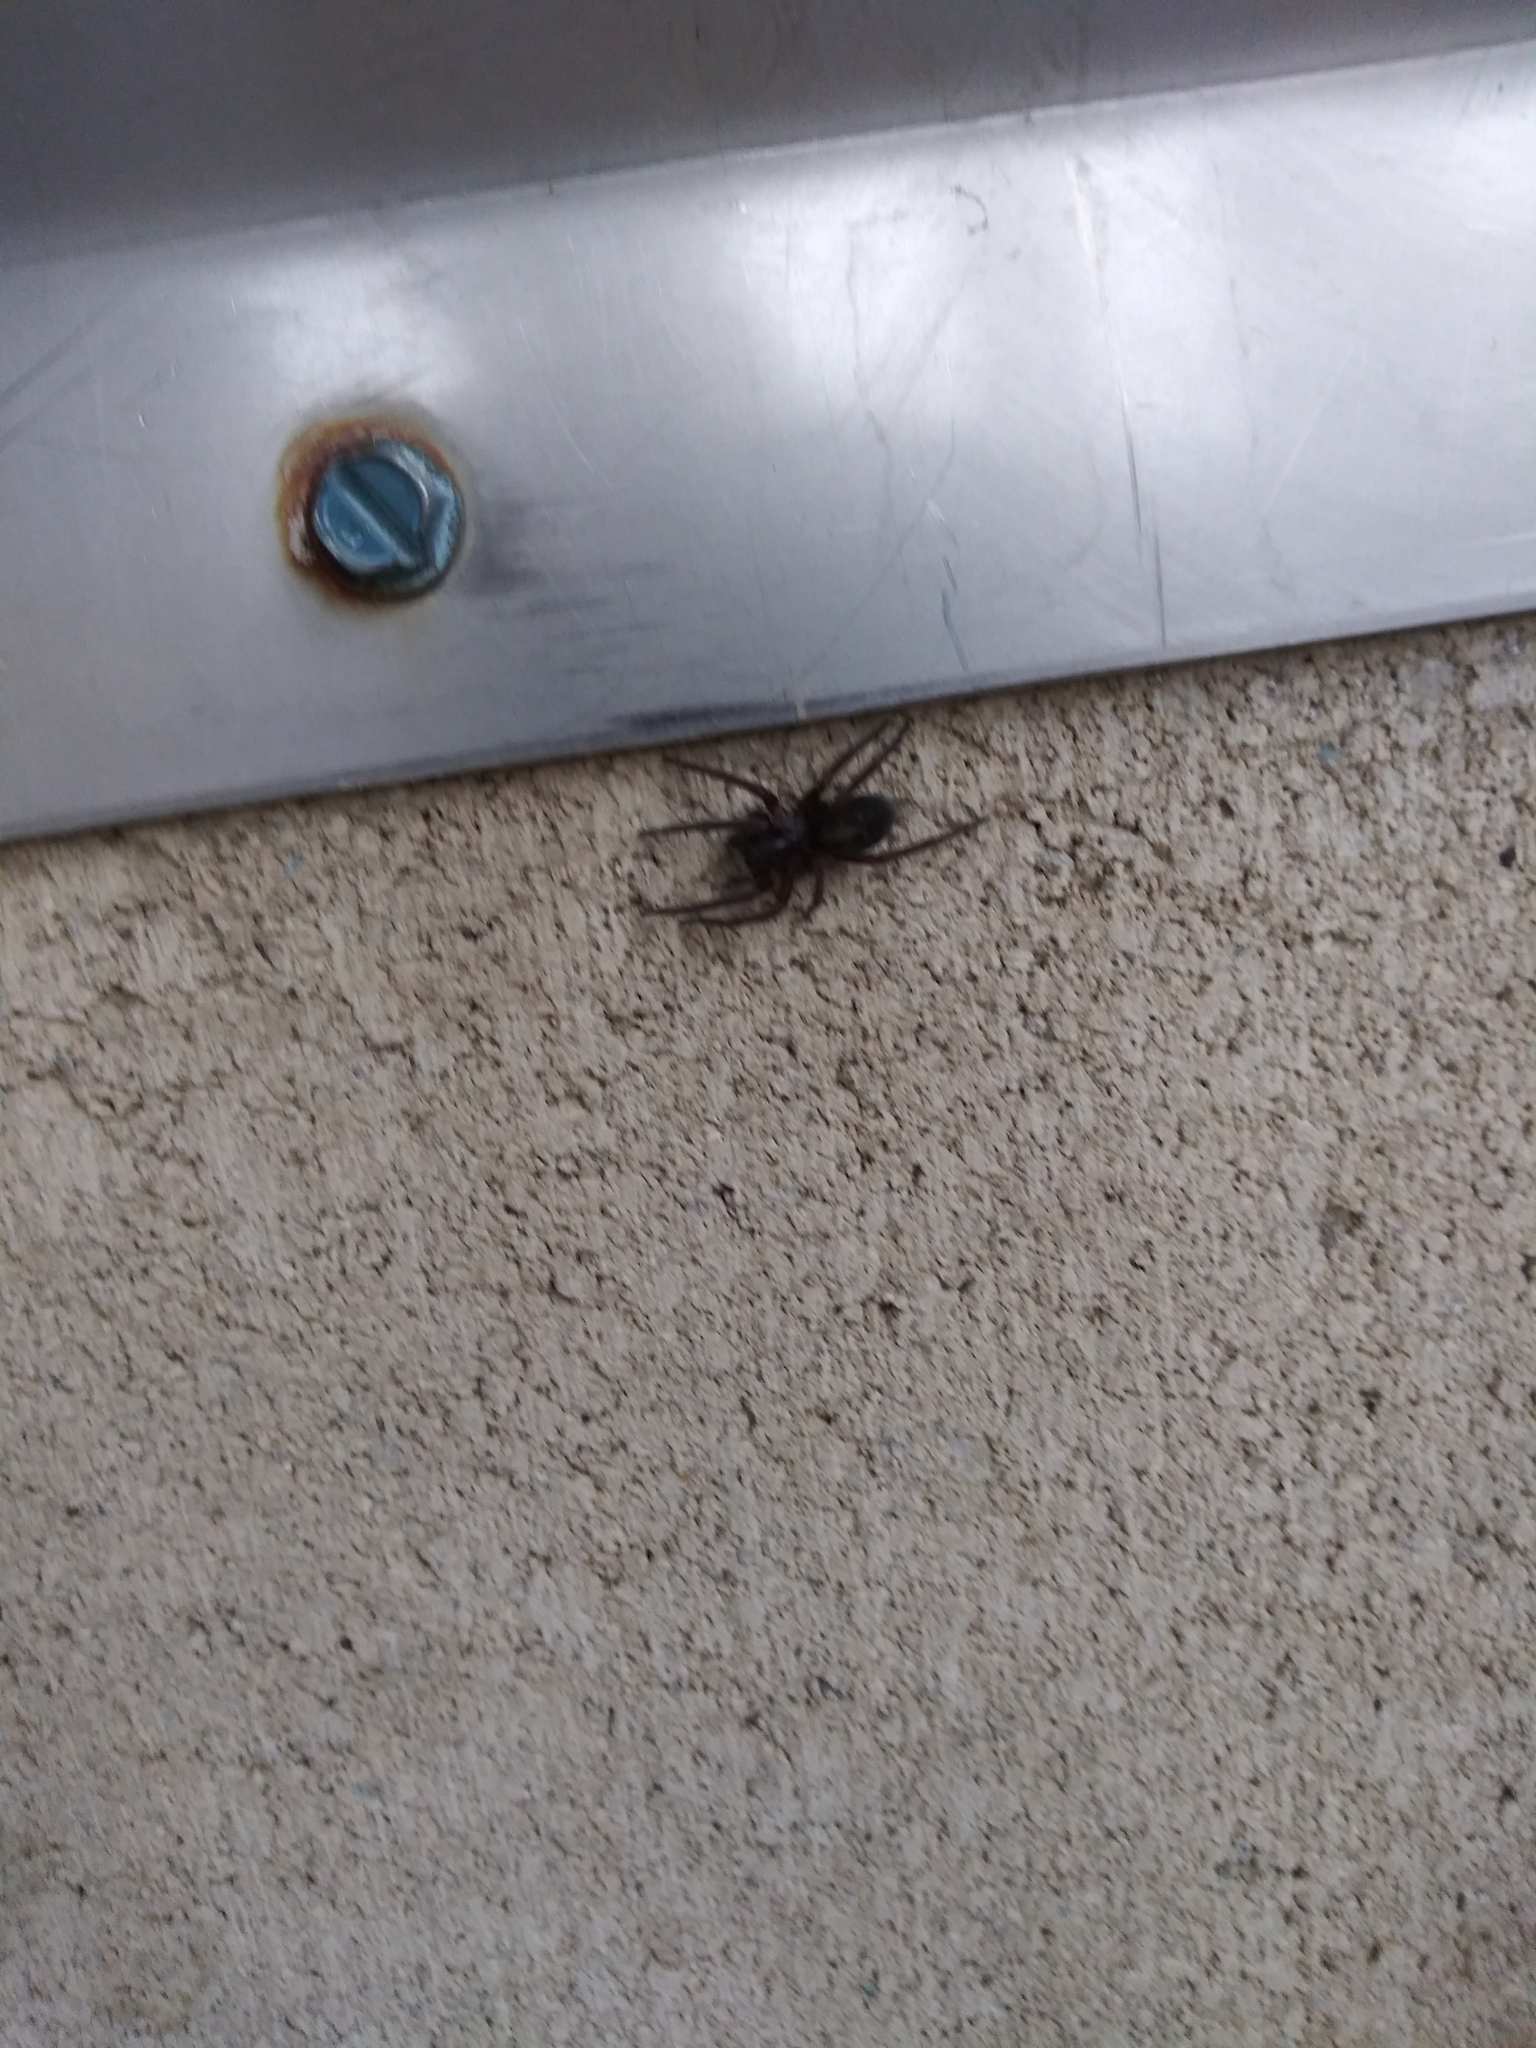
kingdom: Animalia
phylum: Arthropoda
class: Arachnida
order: Araneae
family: Amaurobiidae
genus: Amaurobius
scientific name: Amaurobius ferox
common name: Black laceweaver
